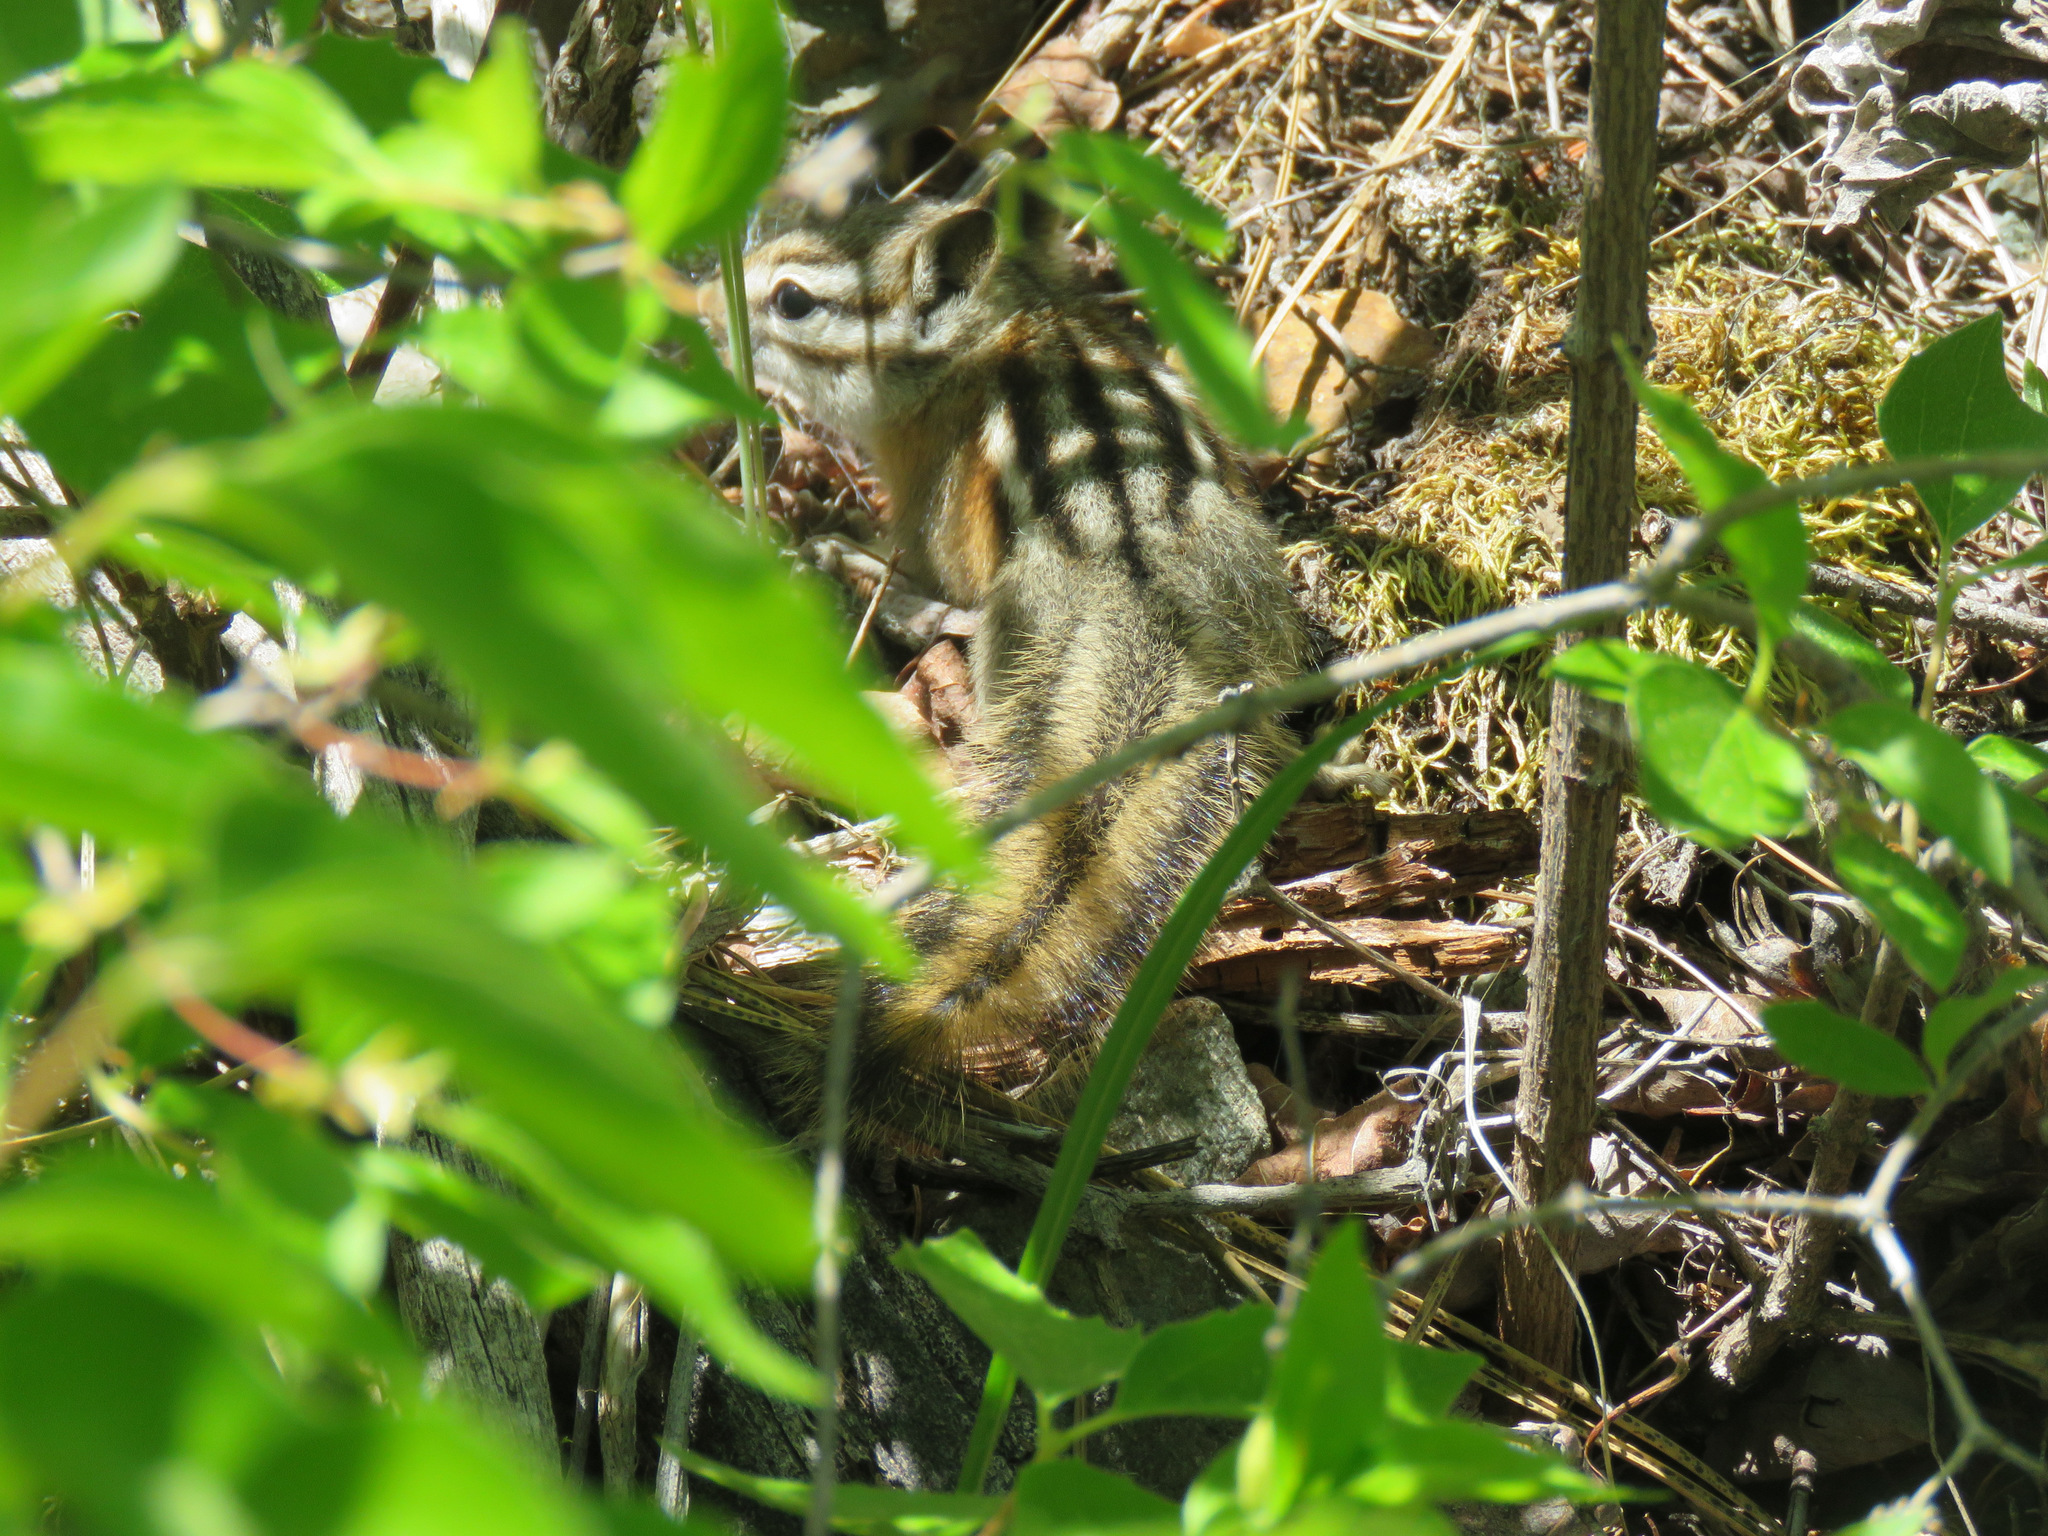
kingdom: Animalia
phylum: Chordata
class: Mammalia
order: Rodentia
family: Sciuridae
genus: Tamias
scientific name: Tamias amoenus
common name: Yellow-pine chipmunk
